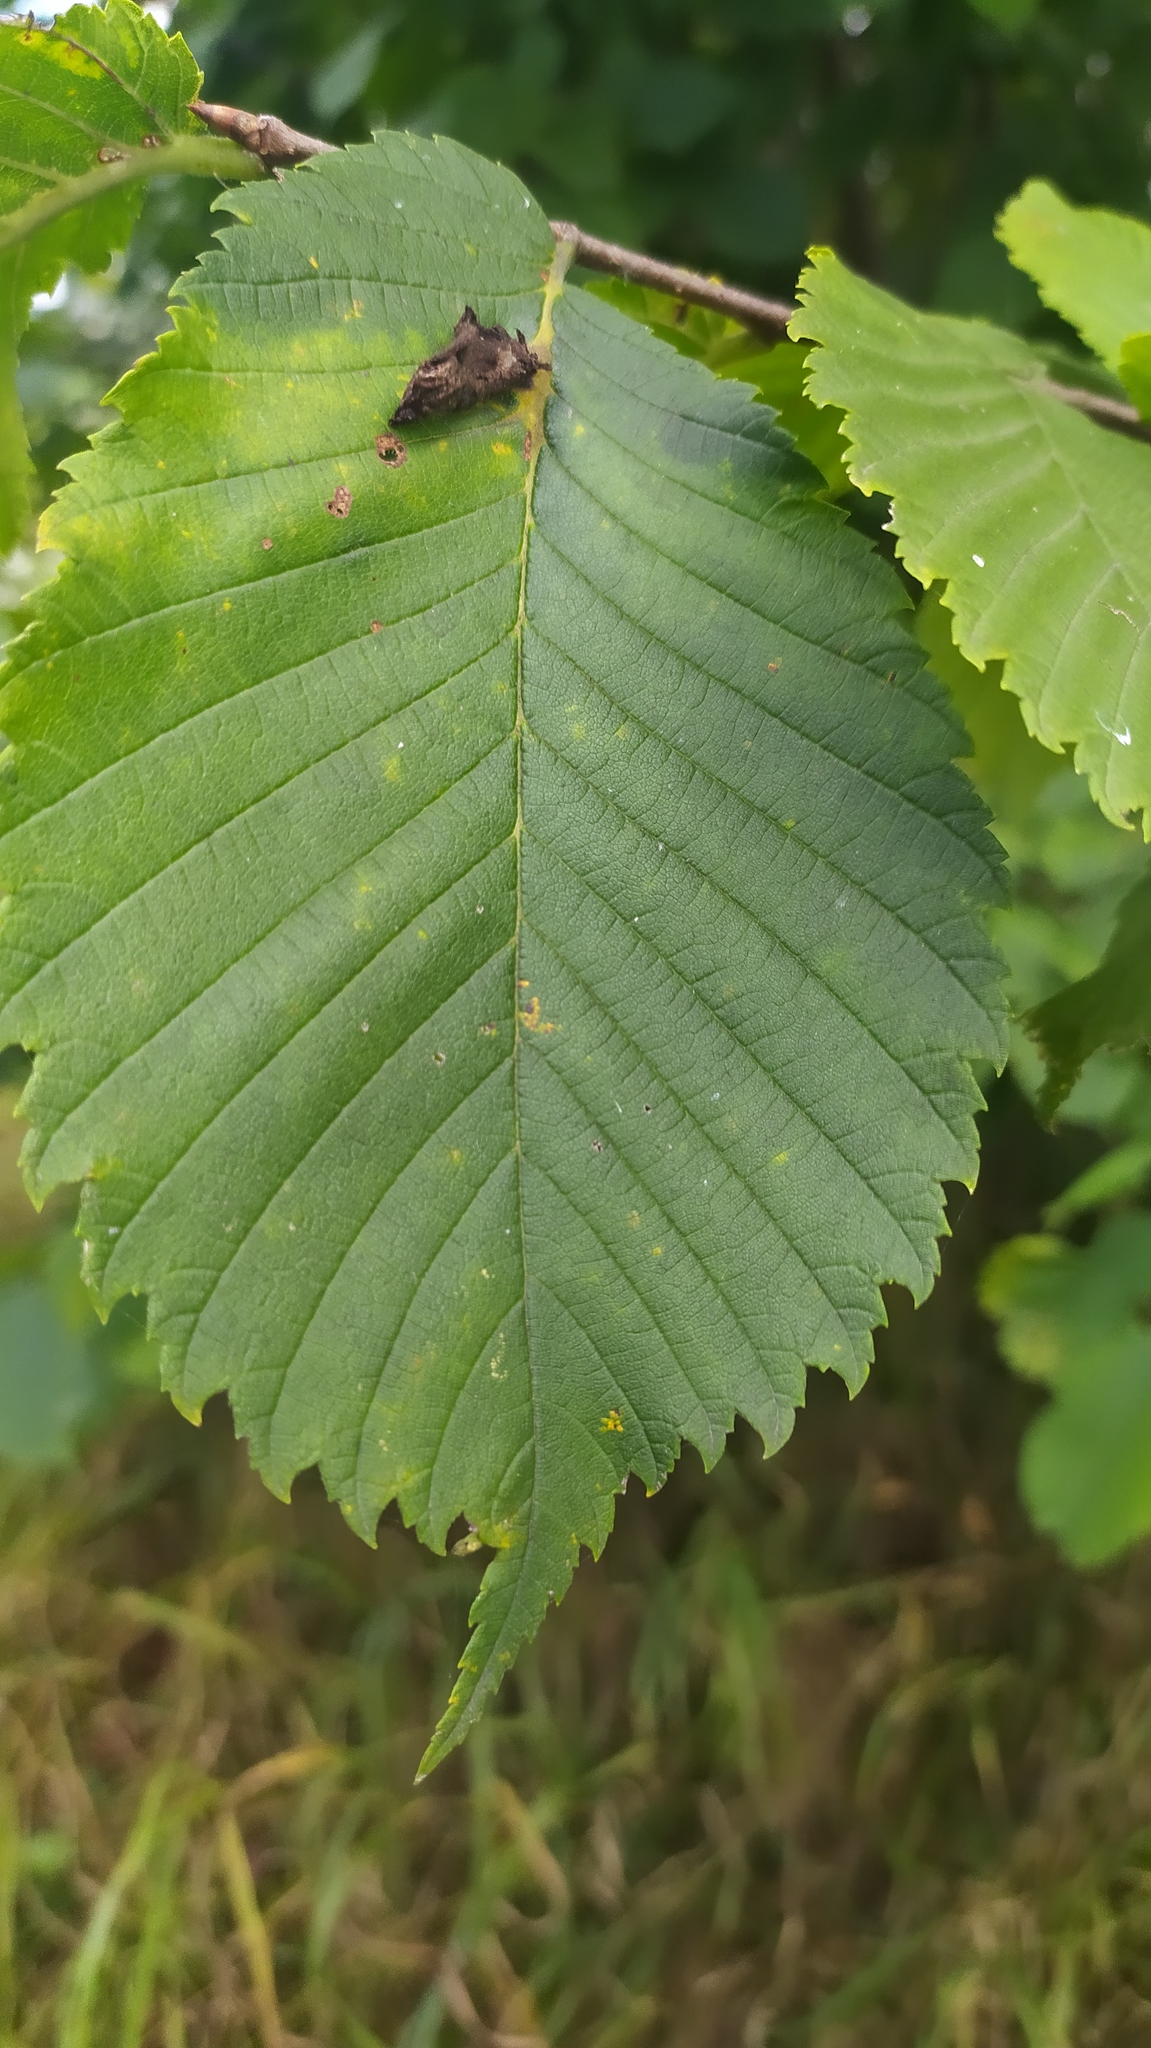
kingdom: Plantae
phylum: Tracheophyta
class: Magnoliopsida
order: Rosales
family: Ulmaceae
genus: Ulmus
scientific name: Ulmus laevis
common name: European white-elm
